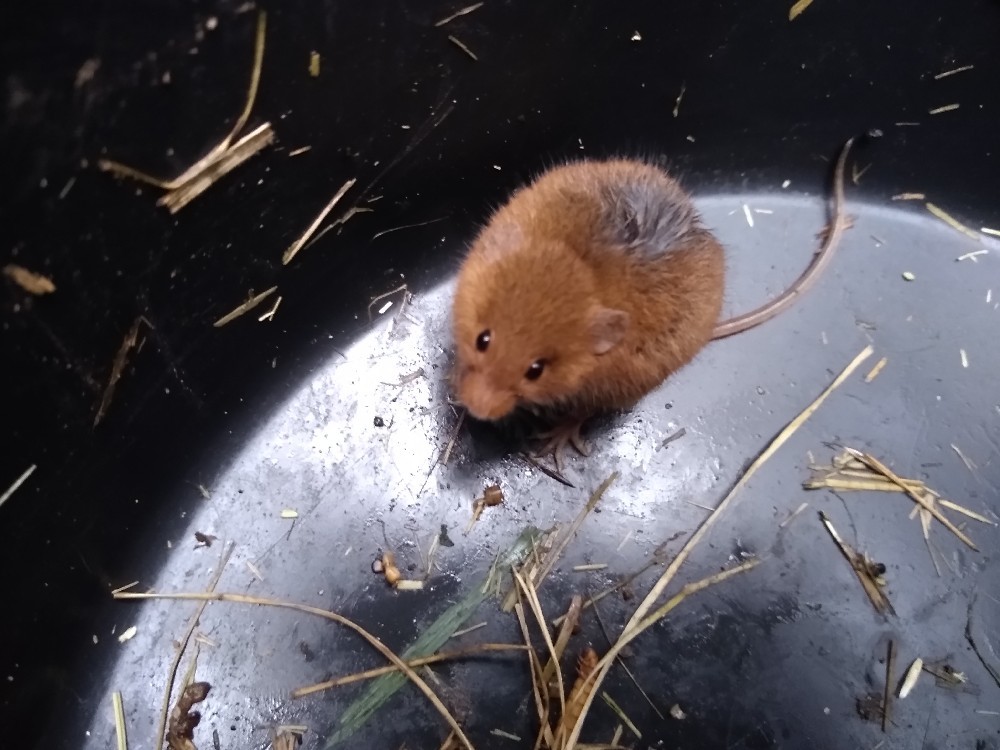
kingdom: Animalia
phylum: Chordata
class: Mammalia
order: Rodentia
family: Muridae
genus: Micromys
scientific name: Micromys minutus
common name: Harvest mouse
